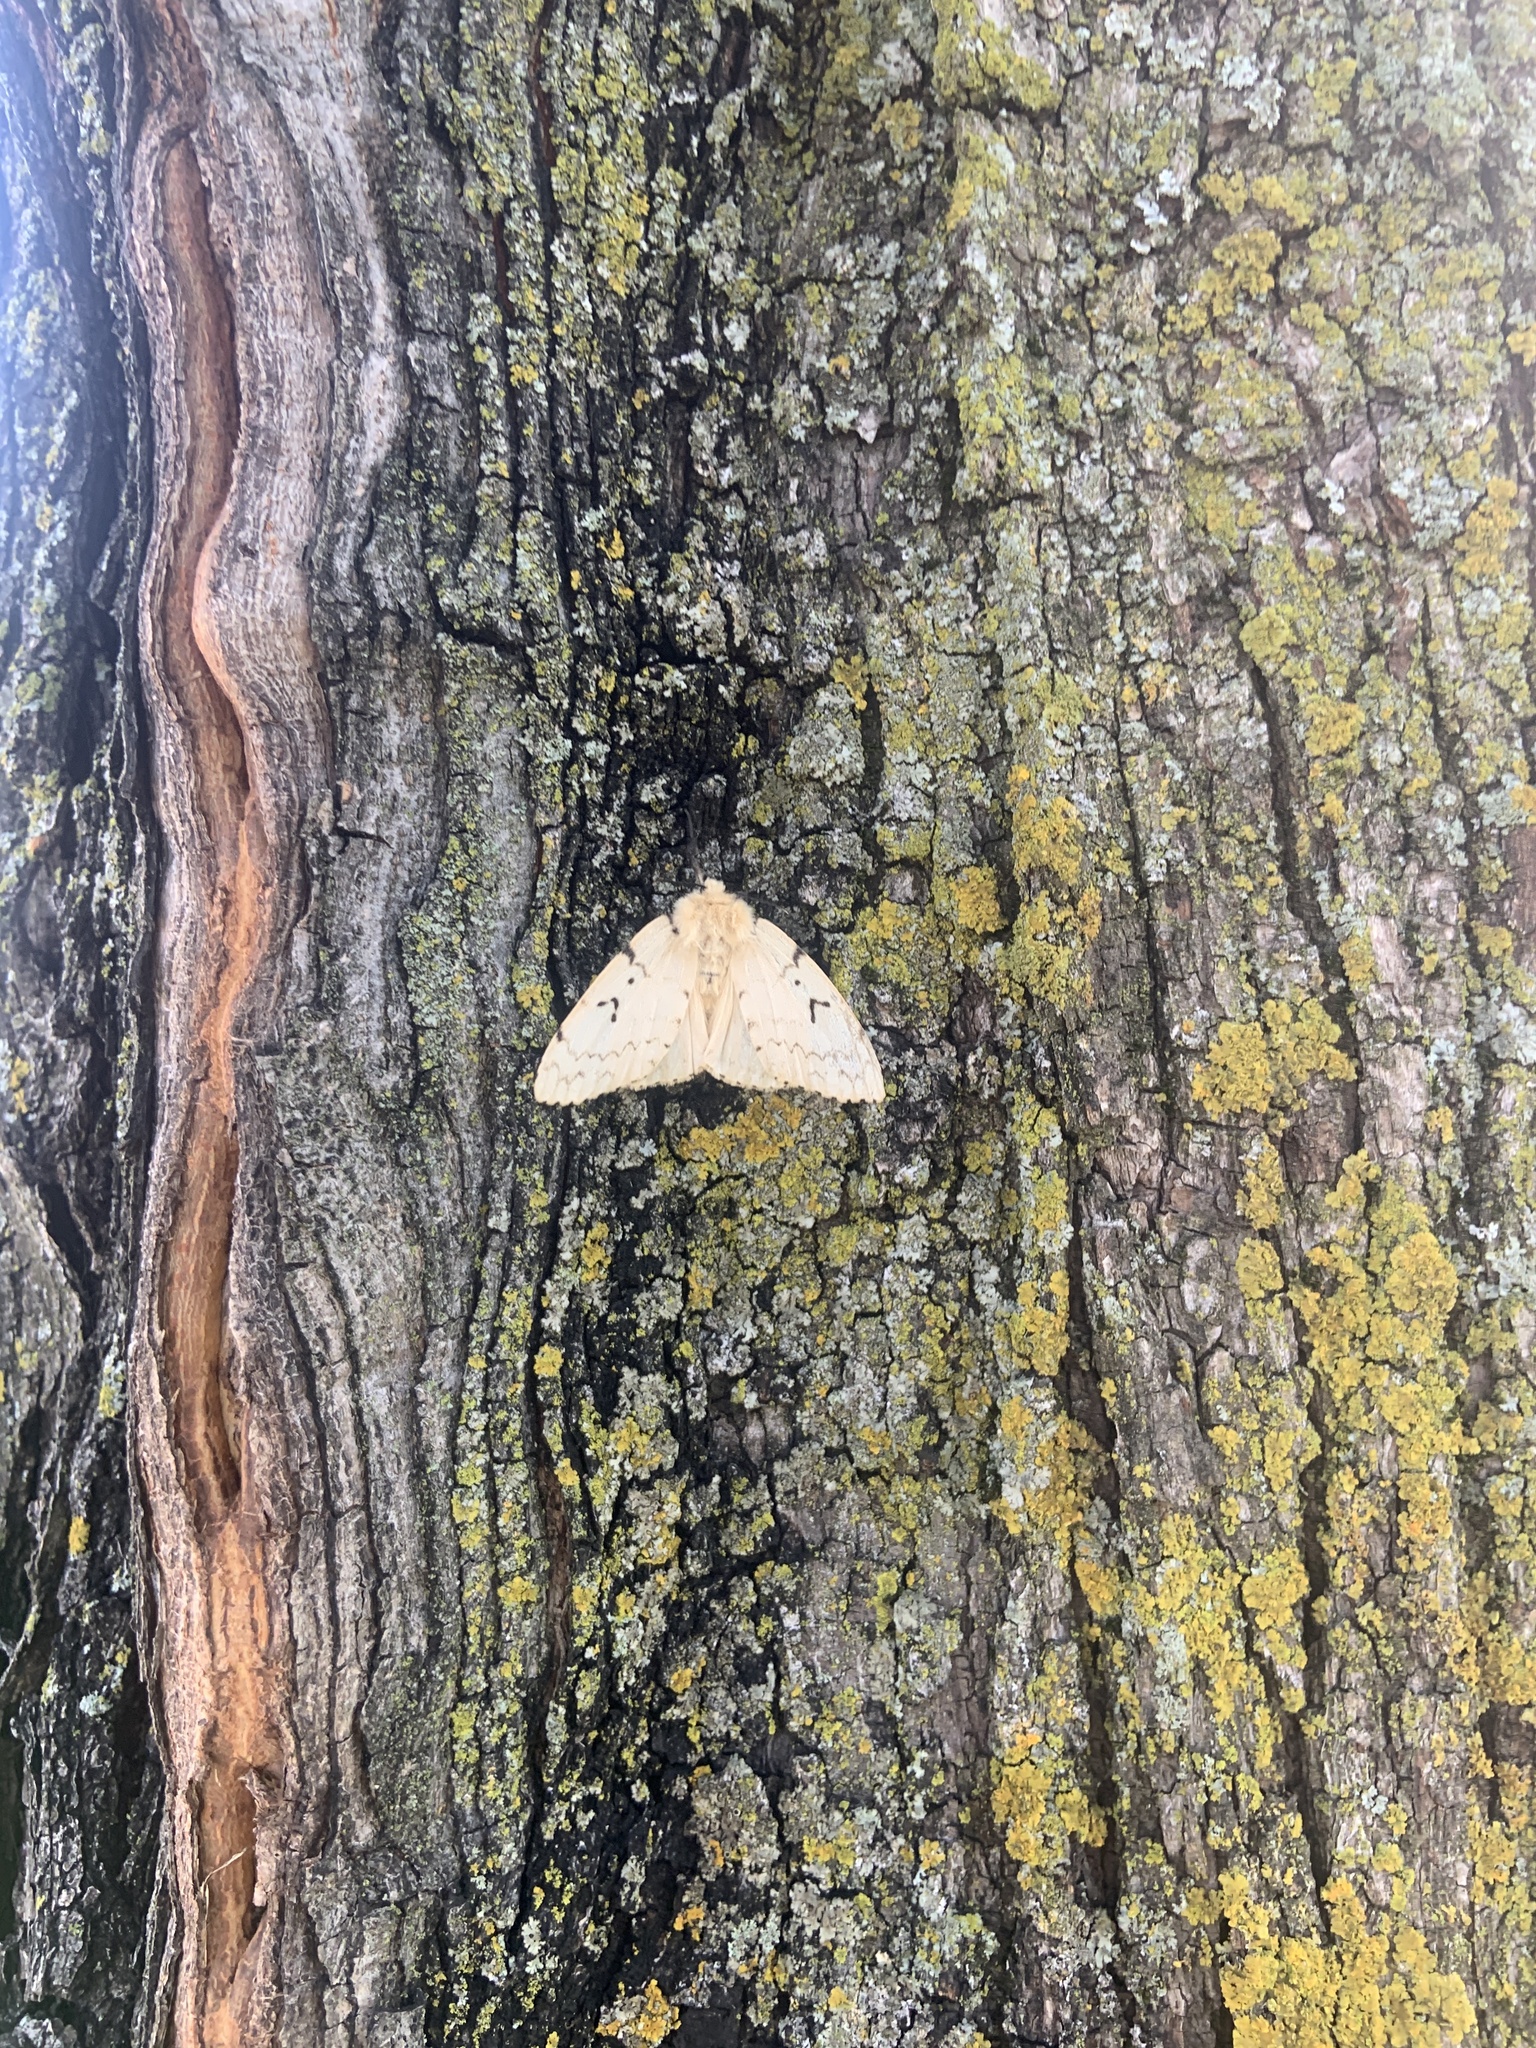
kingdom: Animalia
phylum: Arthropoda
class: Insecta
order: Lepidoptera
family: Erebidae
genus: Lymantria
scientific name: Lymantria dispar
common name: Gypsy moth
